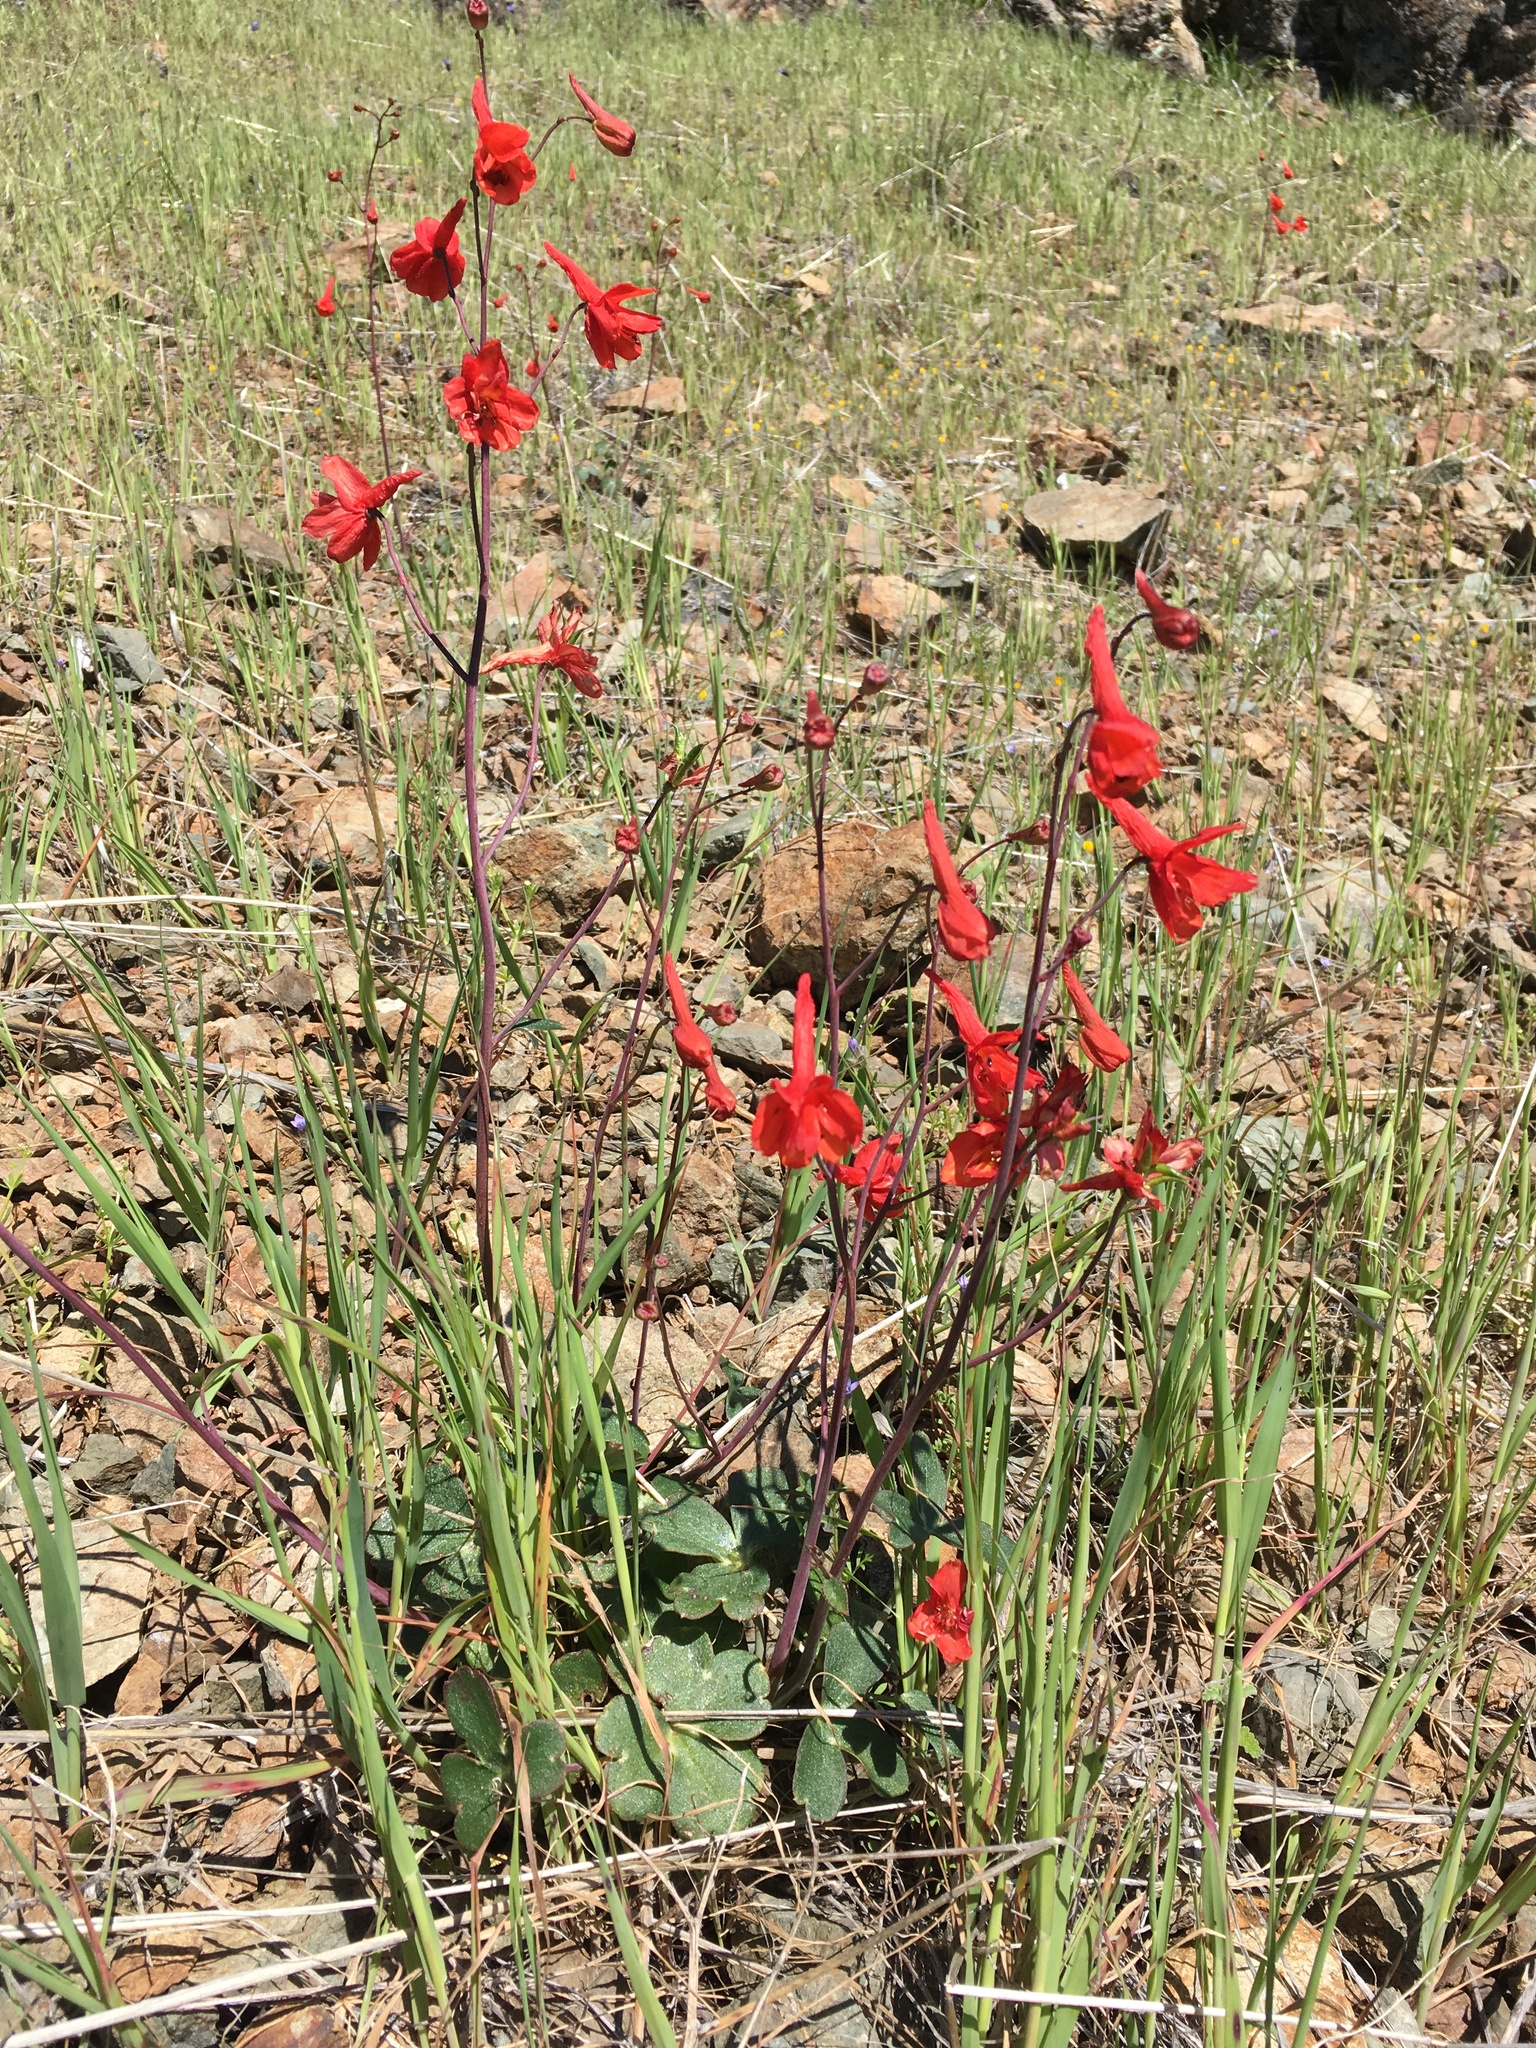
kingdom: Plantae
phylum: Tracheophyta
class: Magnoliopsida
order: Ranunculales
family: Ranunculaceae
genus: Delphinium
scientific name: Delphinium nudicaule
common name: Red larkspur
